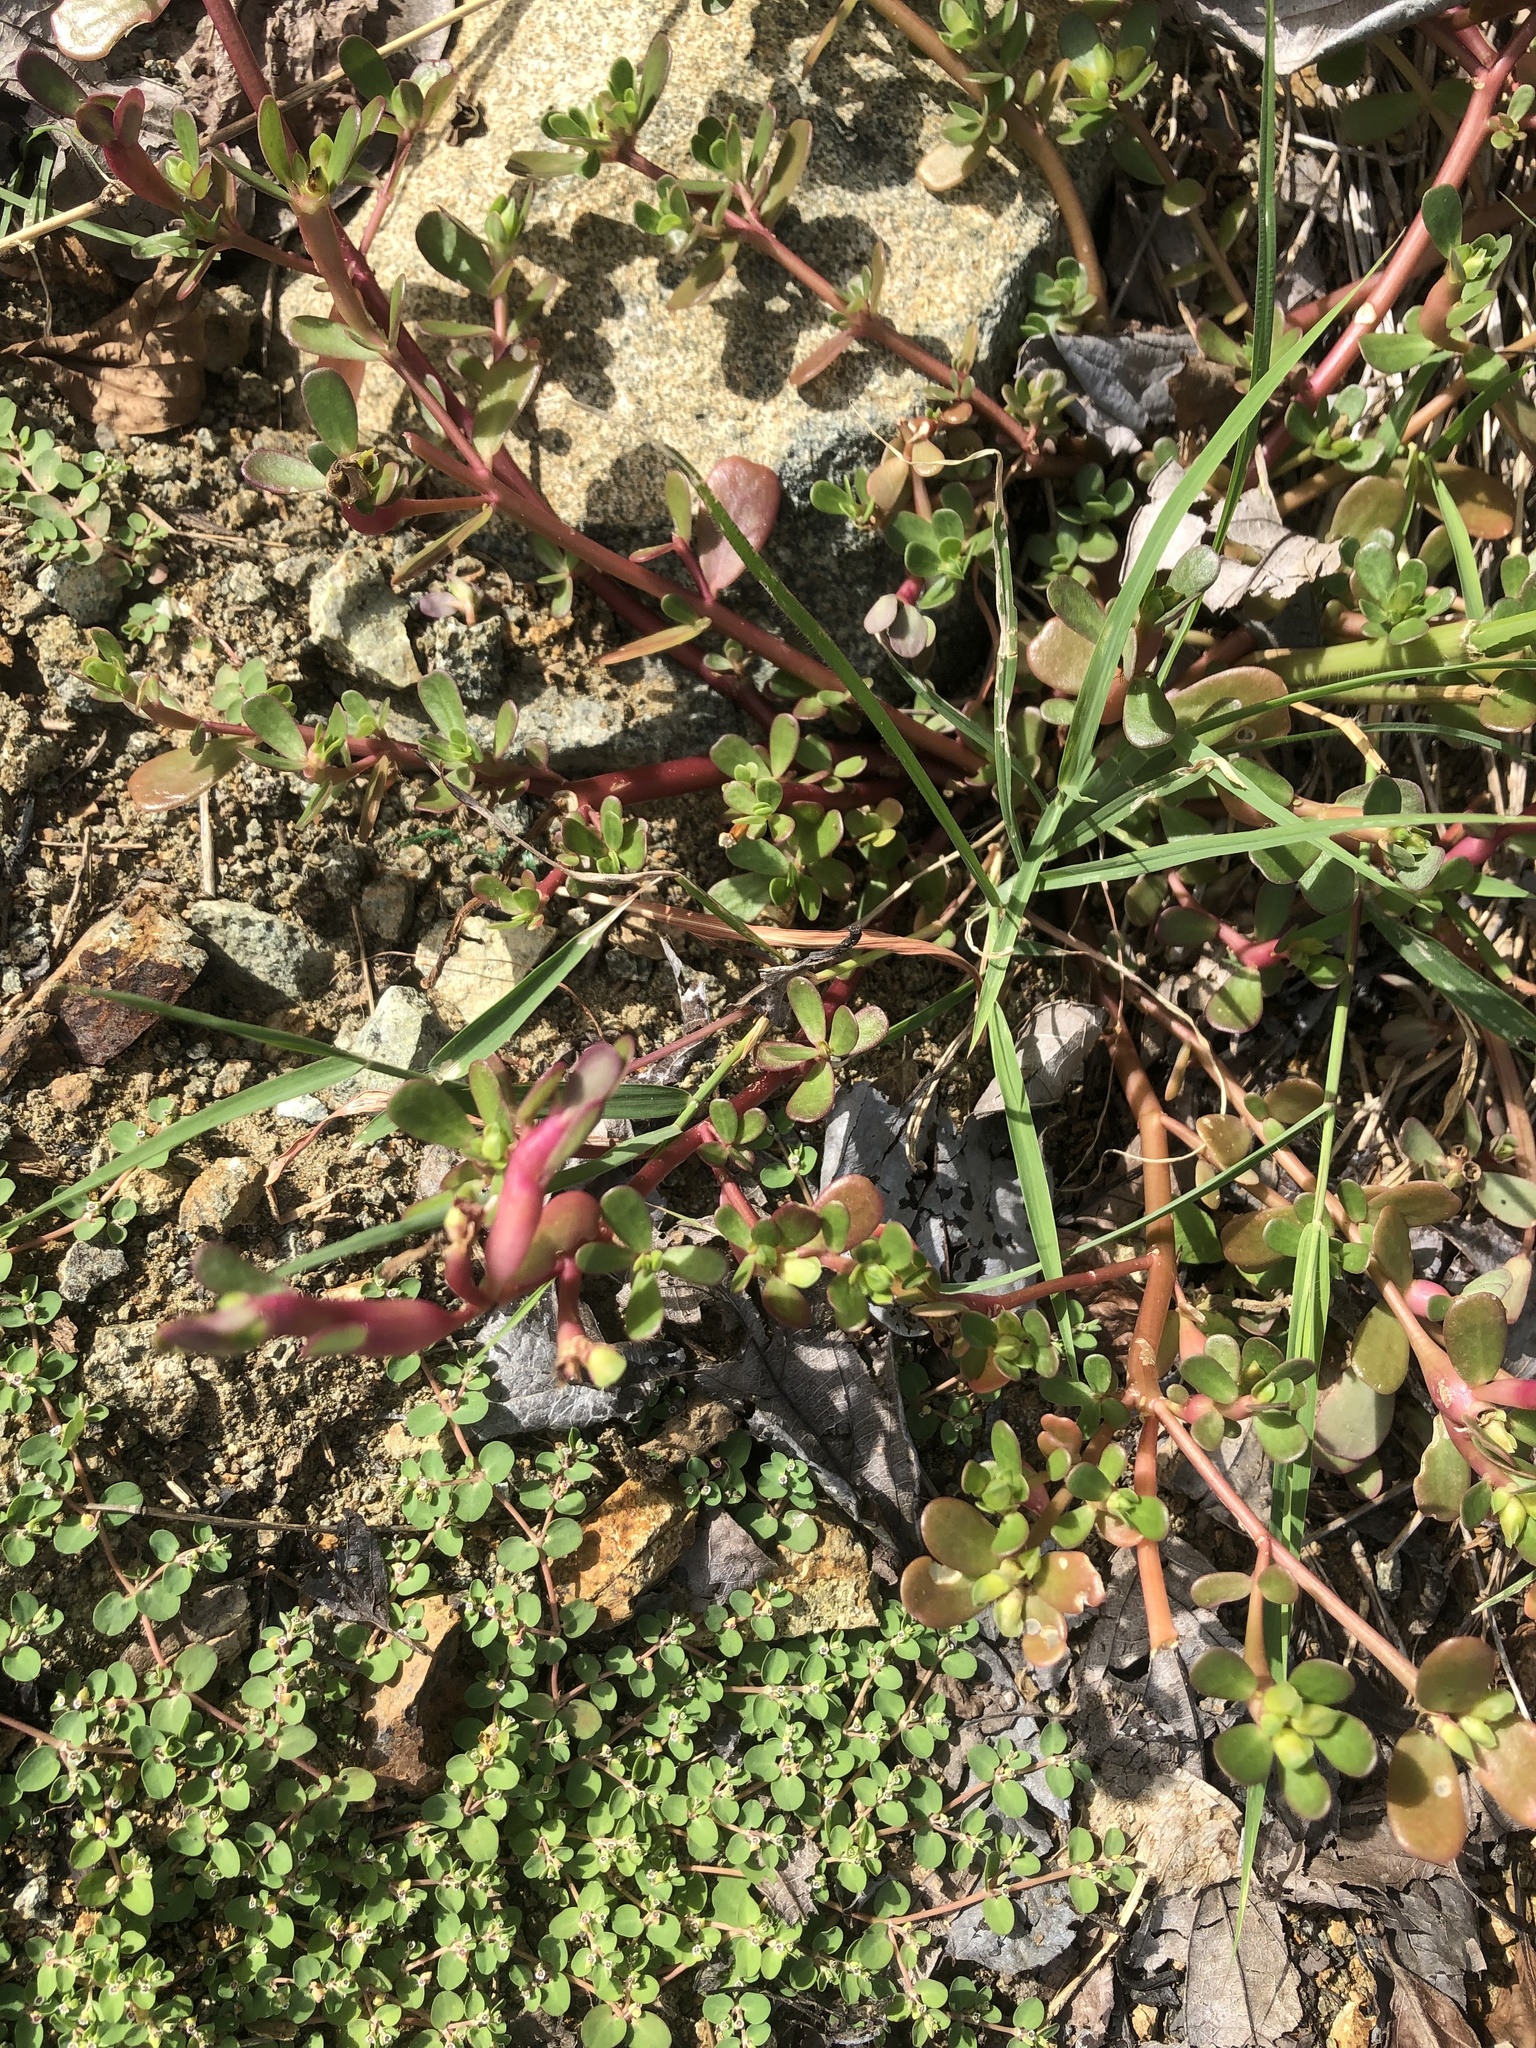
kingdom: Plantae
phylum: Tracheophyta
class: Magnoliopsida
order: Caryophyllales
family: Portulacaceae
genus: Portulaca
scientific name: Portulaca oleracea
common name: Common purslane
